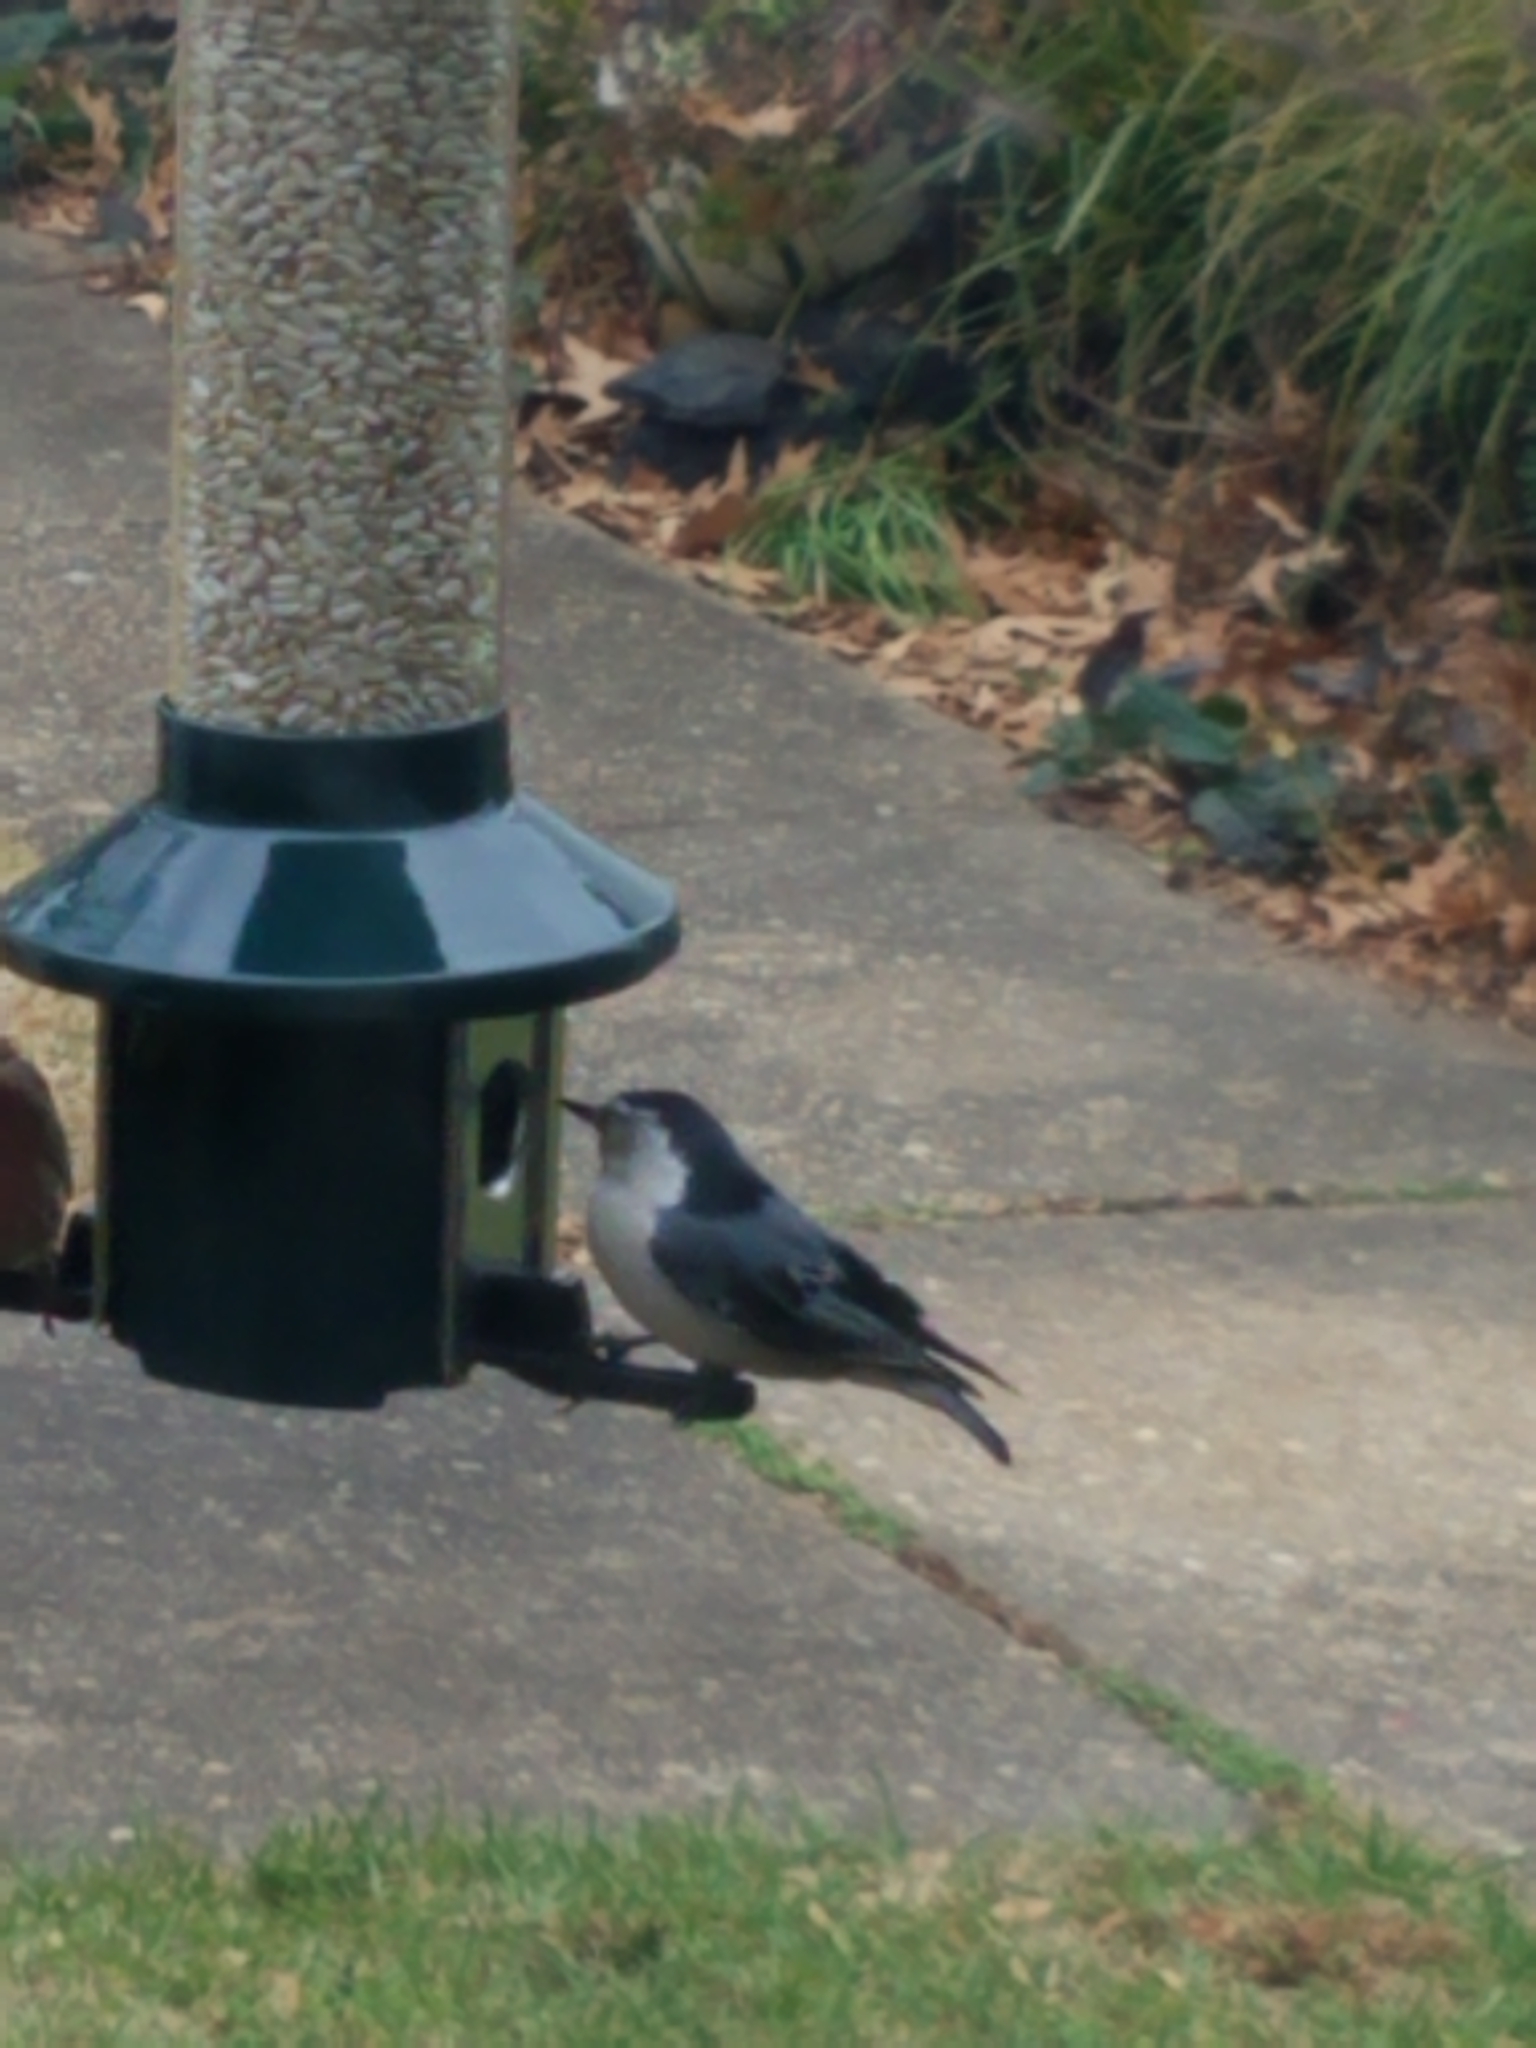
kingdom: Animalia
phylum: Chordata
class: Aves
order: Passeriformes
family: Sittidae
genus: Sitta
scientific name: Sitta carolinensis
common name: White-breasted nuthatch
